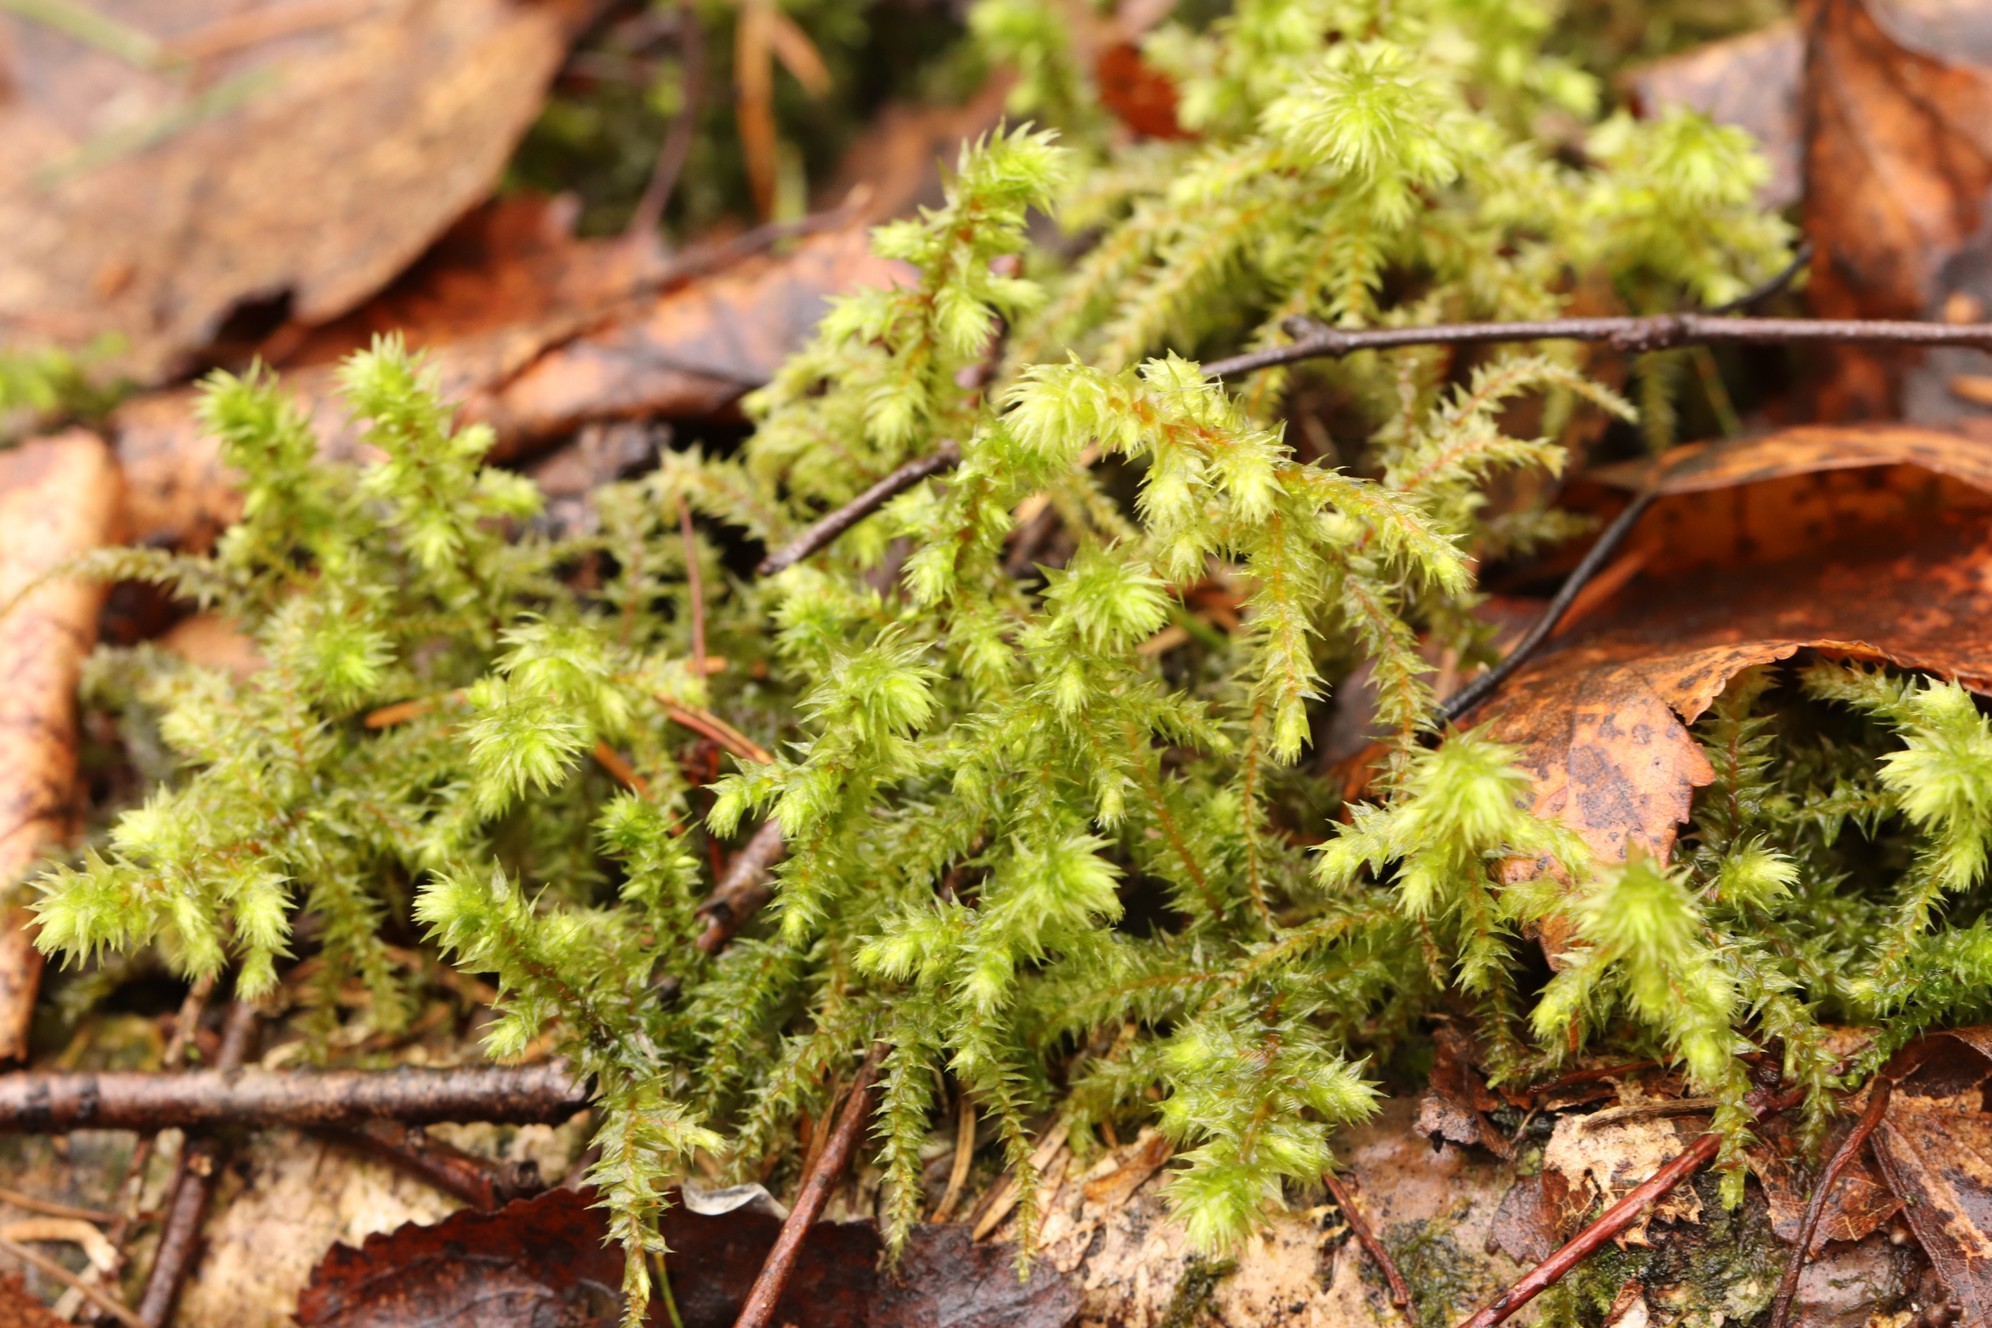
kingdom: Plantae
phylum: Bryophyta
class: Bryopsida
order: Hypnales
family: Hylocomiaceae
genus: Hylocomiadelphus
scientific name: Hylocomiadelphus triquetrus
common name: Rough goose neck moss
